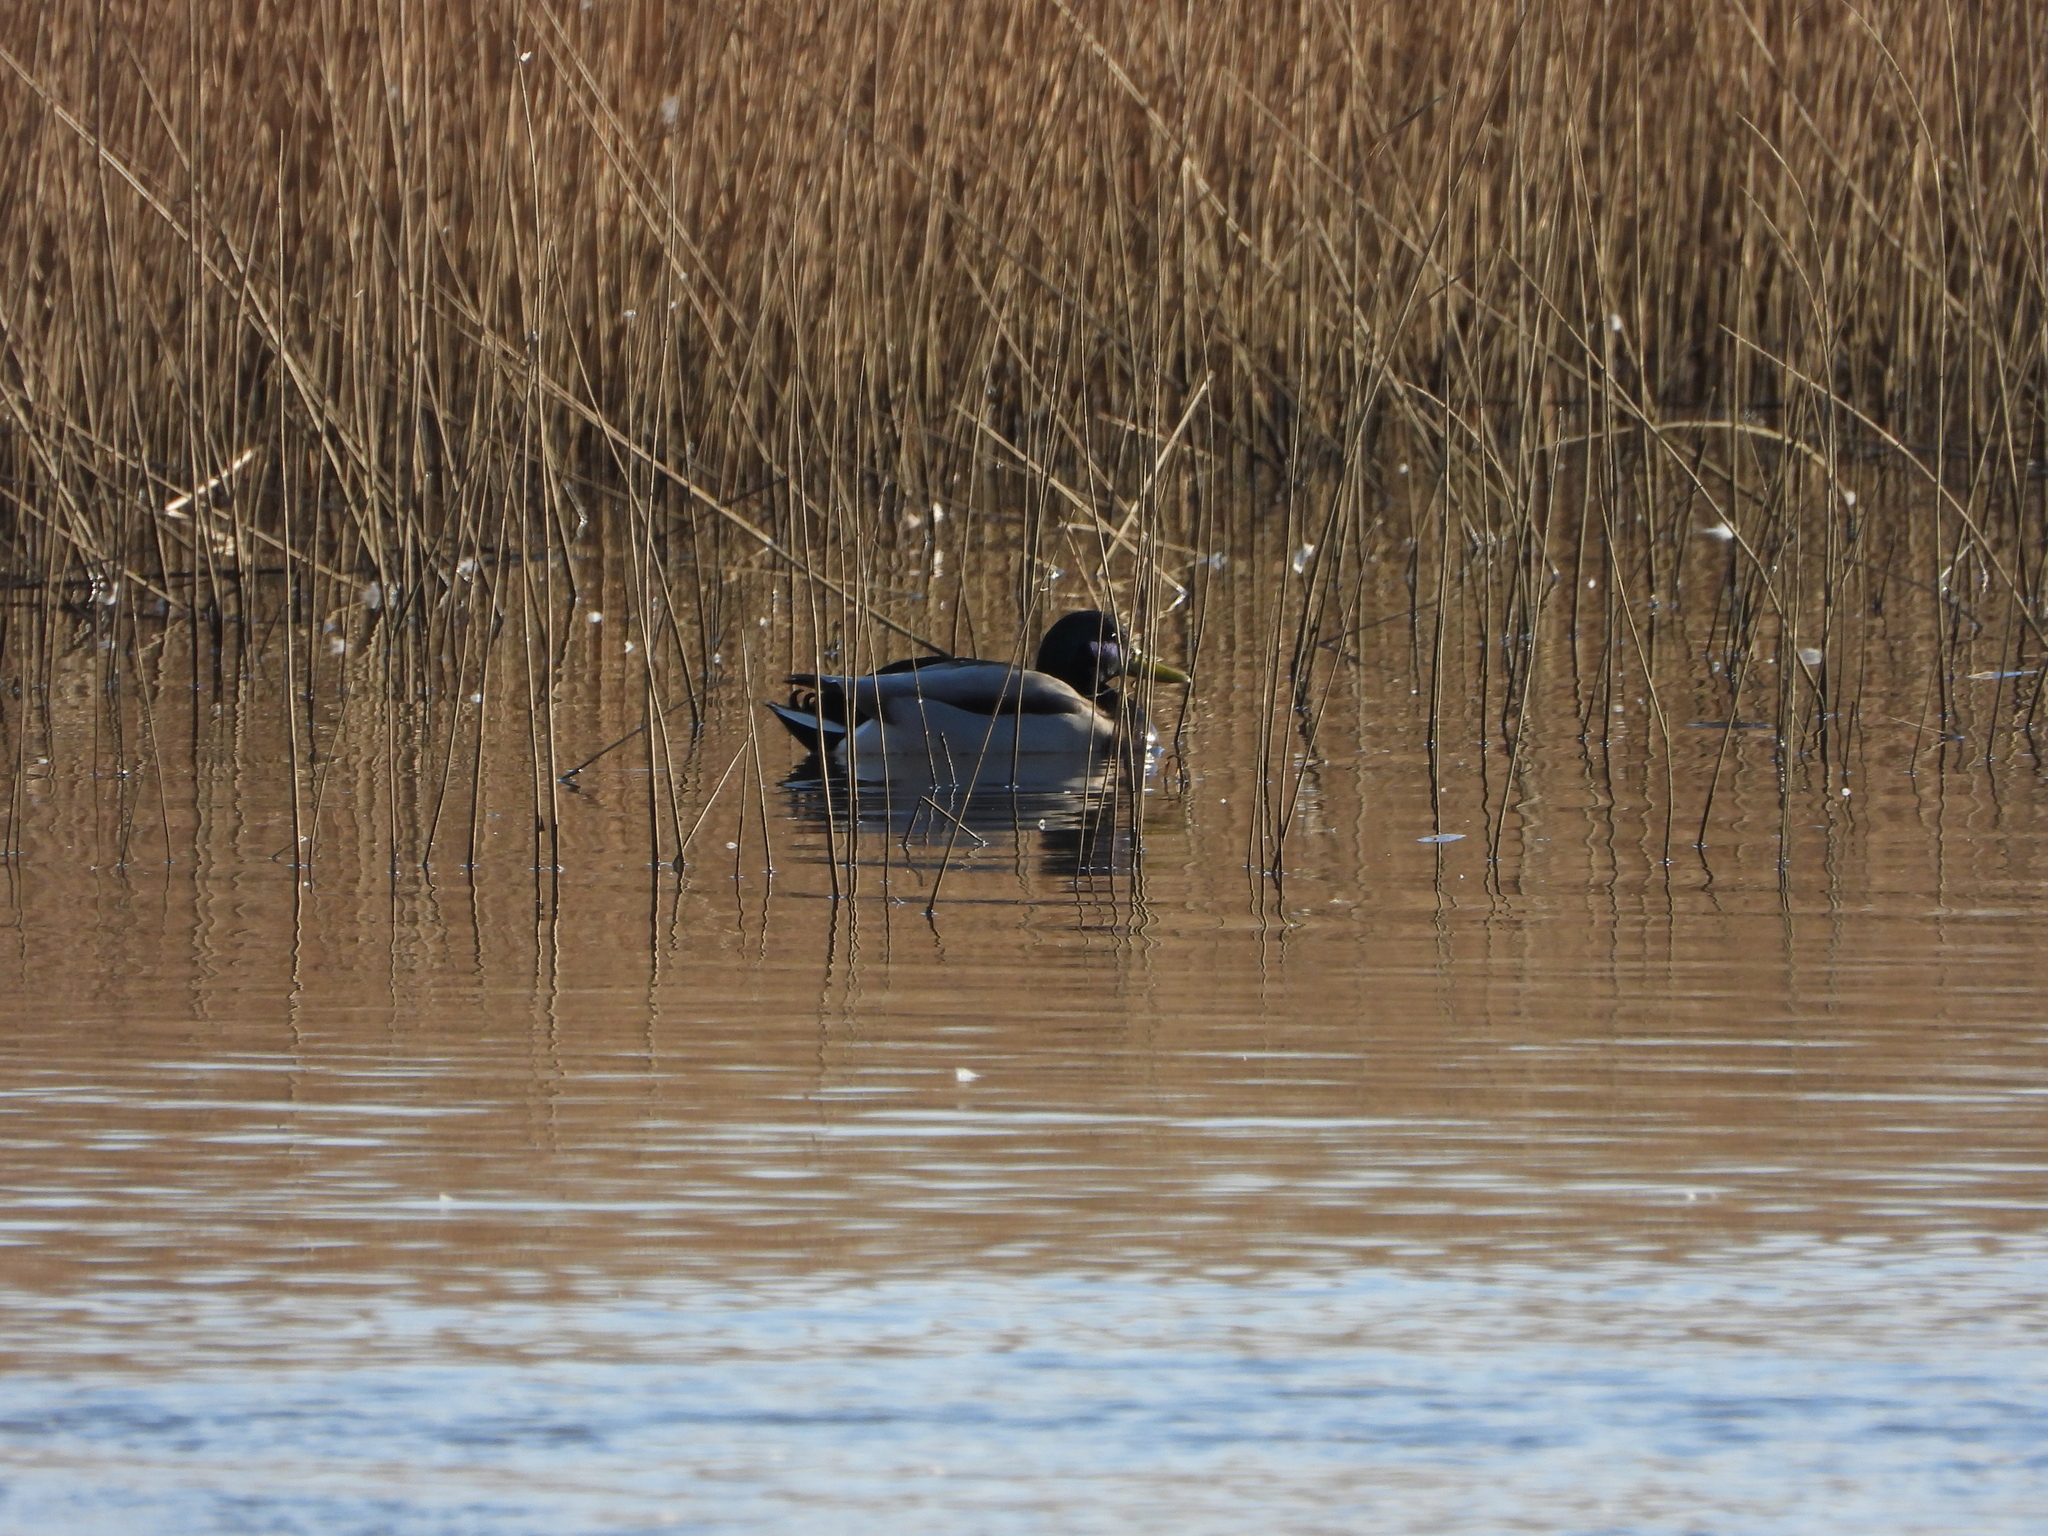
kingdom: Animalia
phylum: Chordata
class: Aves
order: Anseriformes
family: Anatidae
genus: Anas
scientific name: Anas platyrhynchos
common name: Mallard
